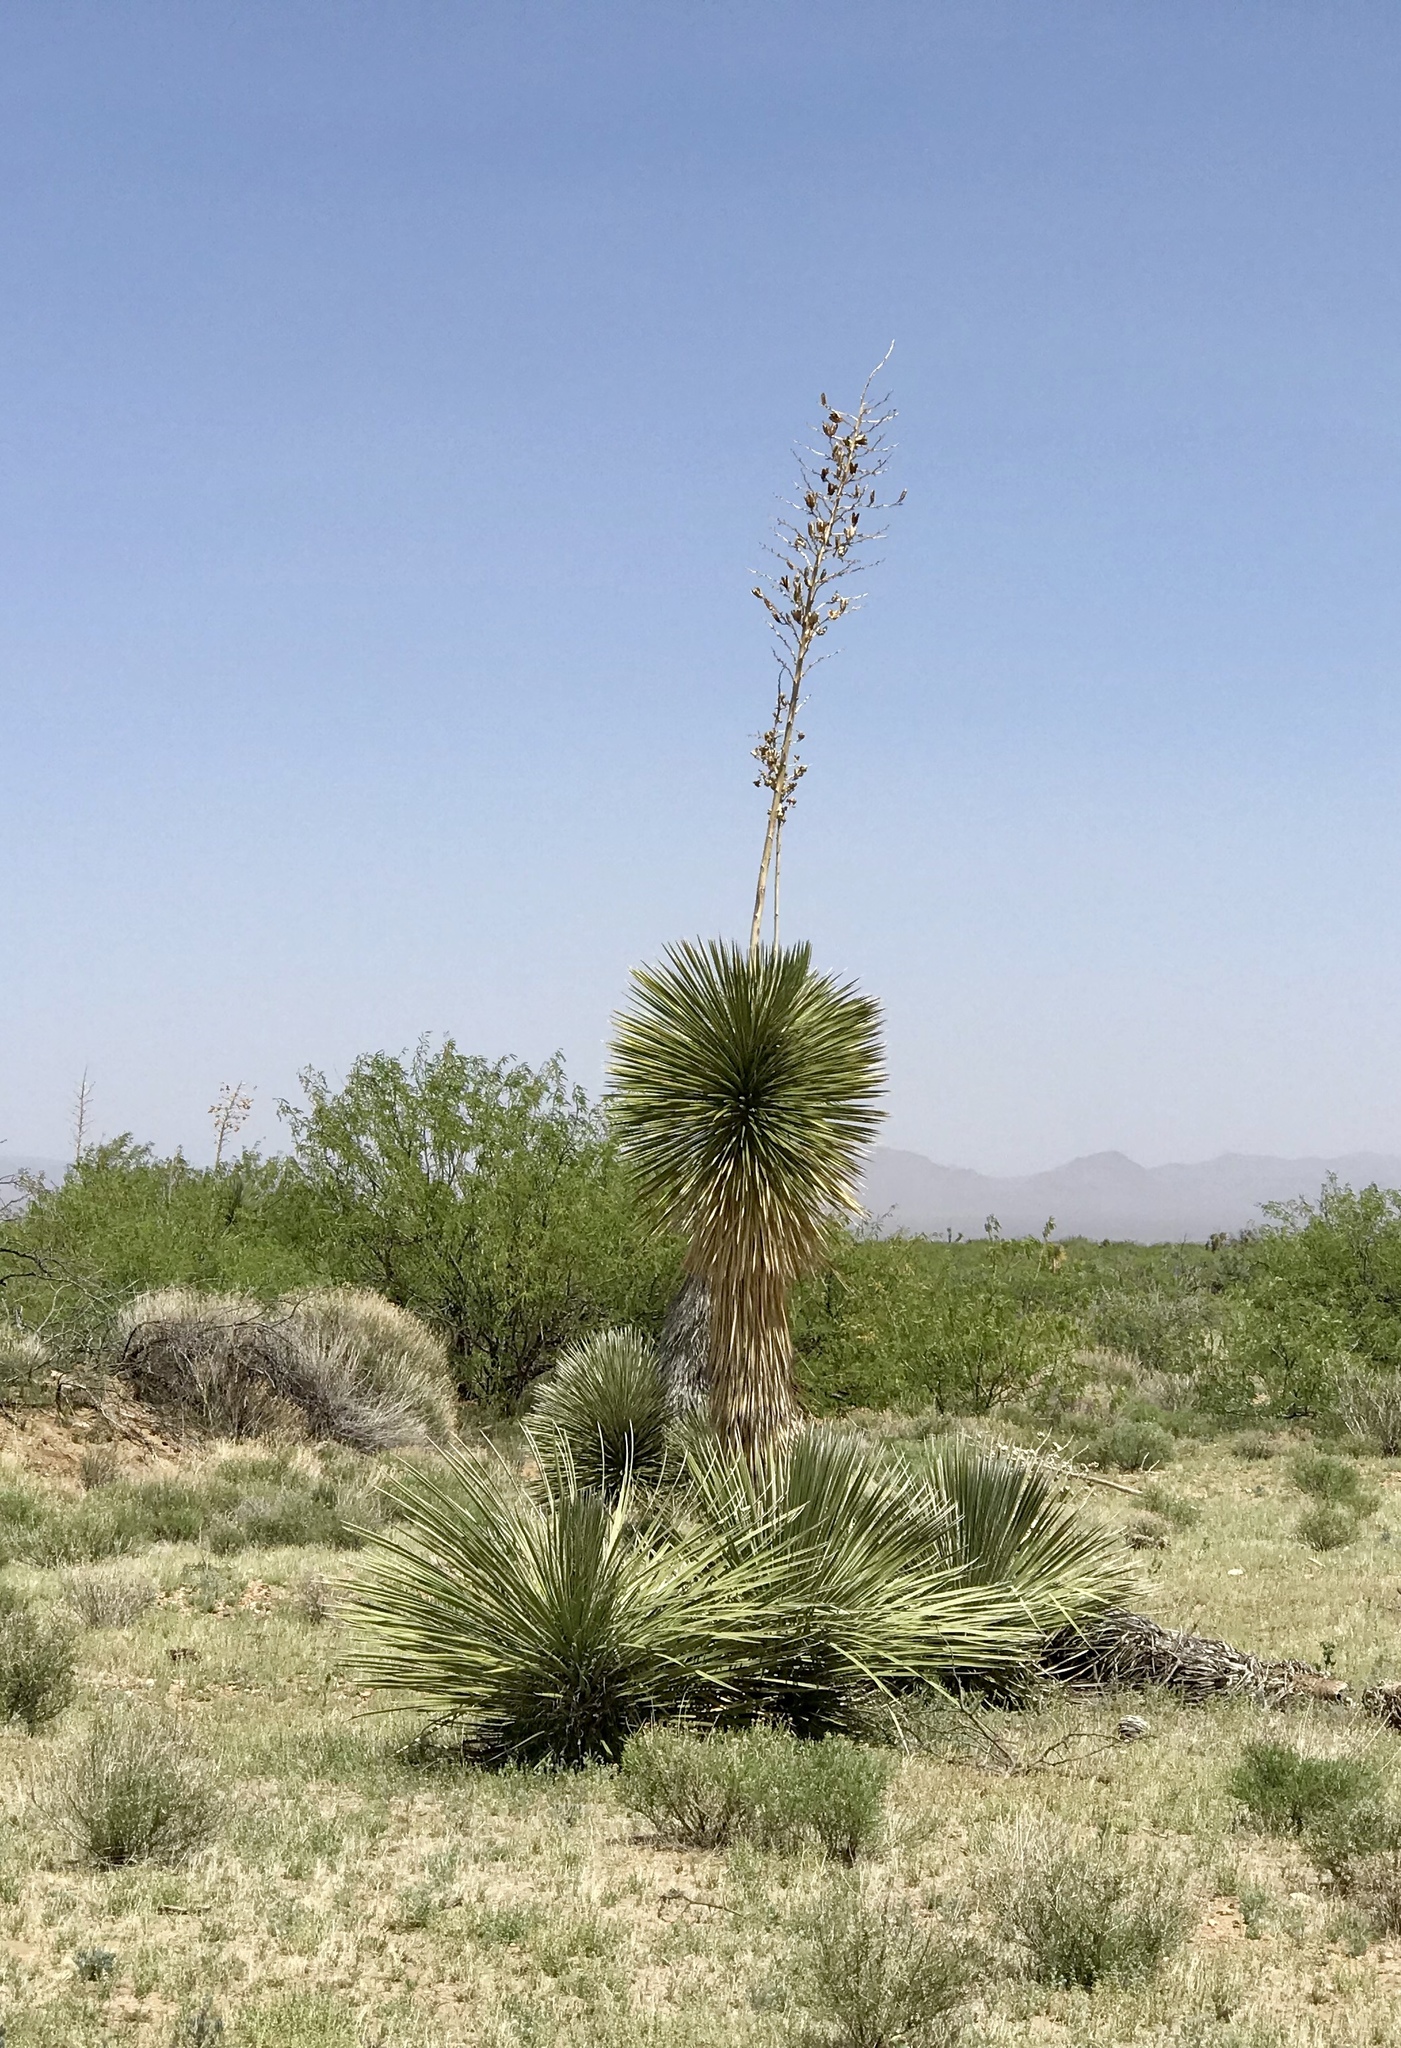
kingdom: Plantae
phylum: Tracheophyta
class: Liliopsida
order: Asparagales
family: Asparagaceae
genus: Yucca
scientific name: Yucca elata
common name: Palmella
